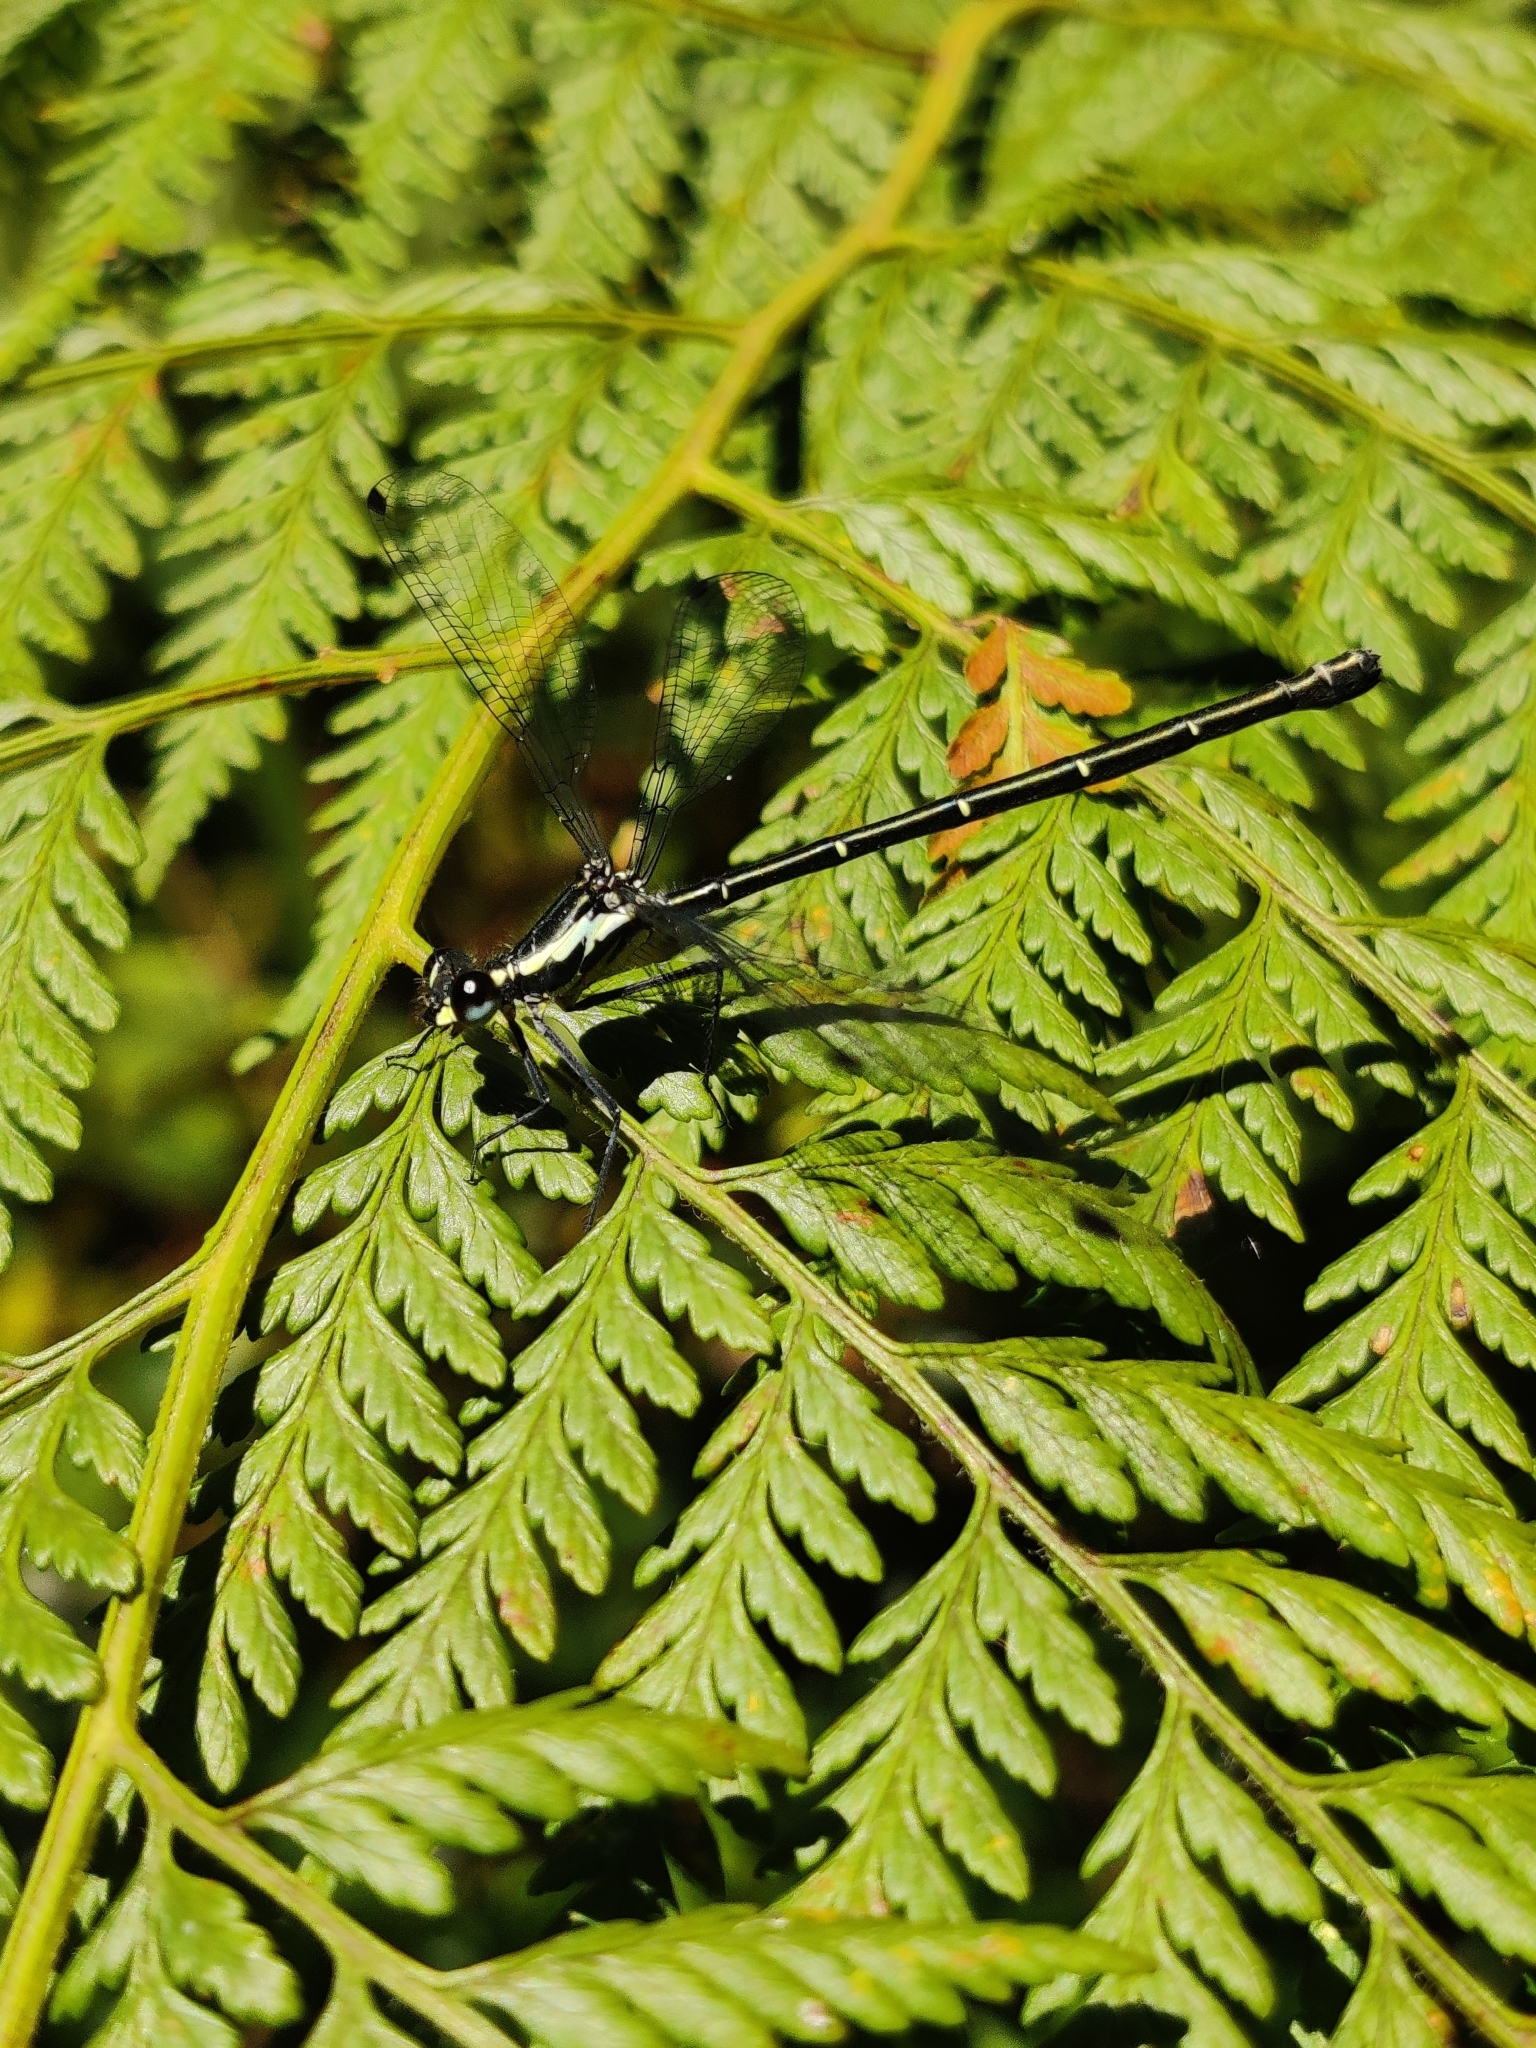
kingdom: Animalia
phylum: Arthropoda
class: Insecta
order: Odonata
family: Argiolestidae
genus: Austroargiolestes
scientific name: Austroargiolestes icteromelas
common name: Common flatwing
